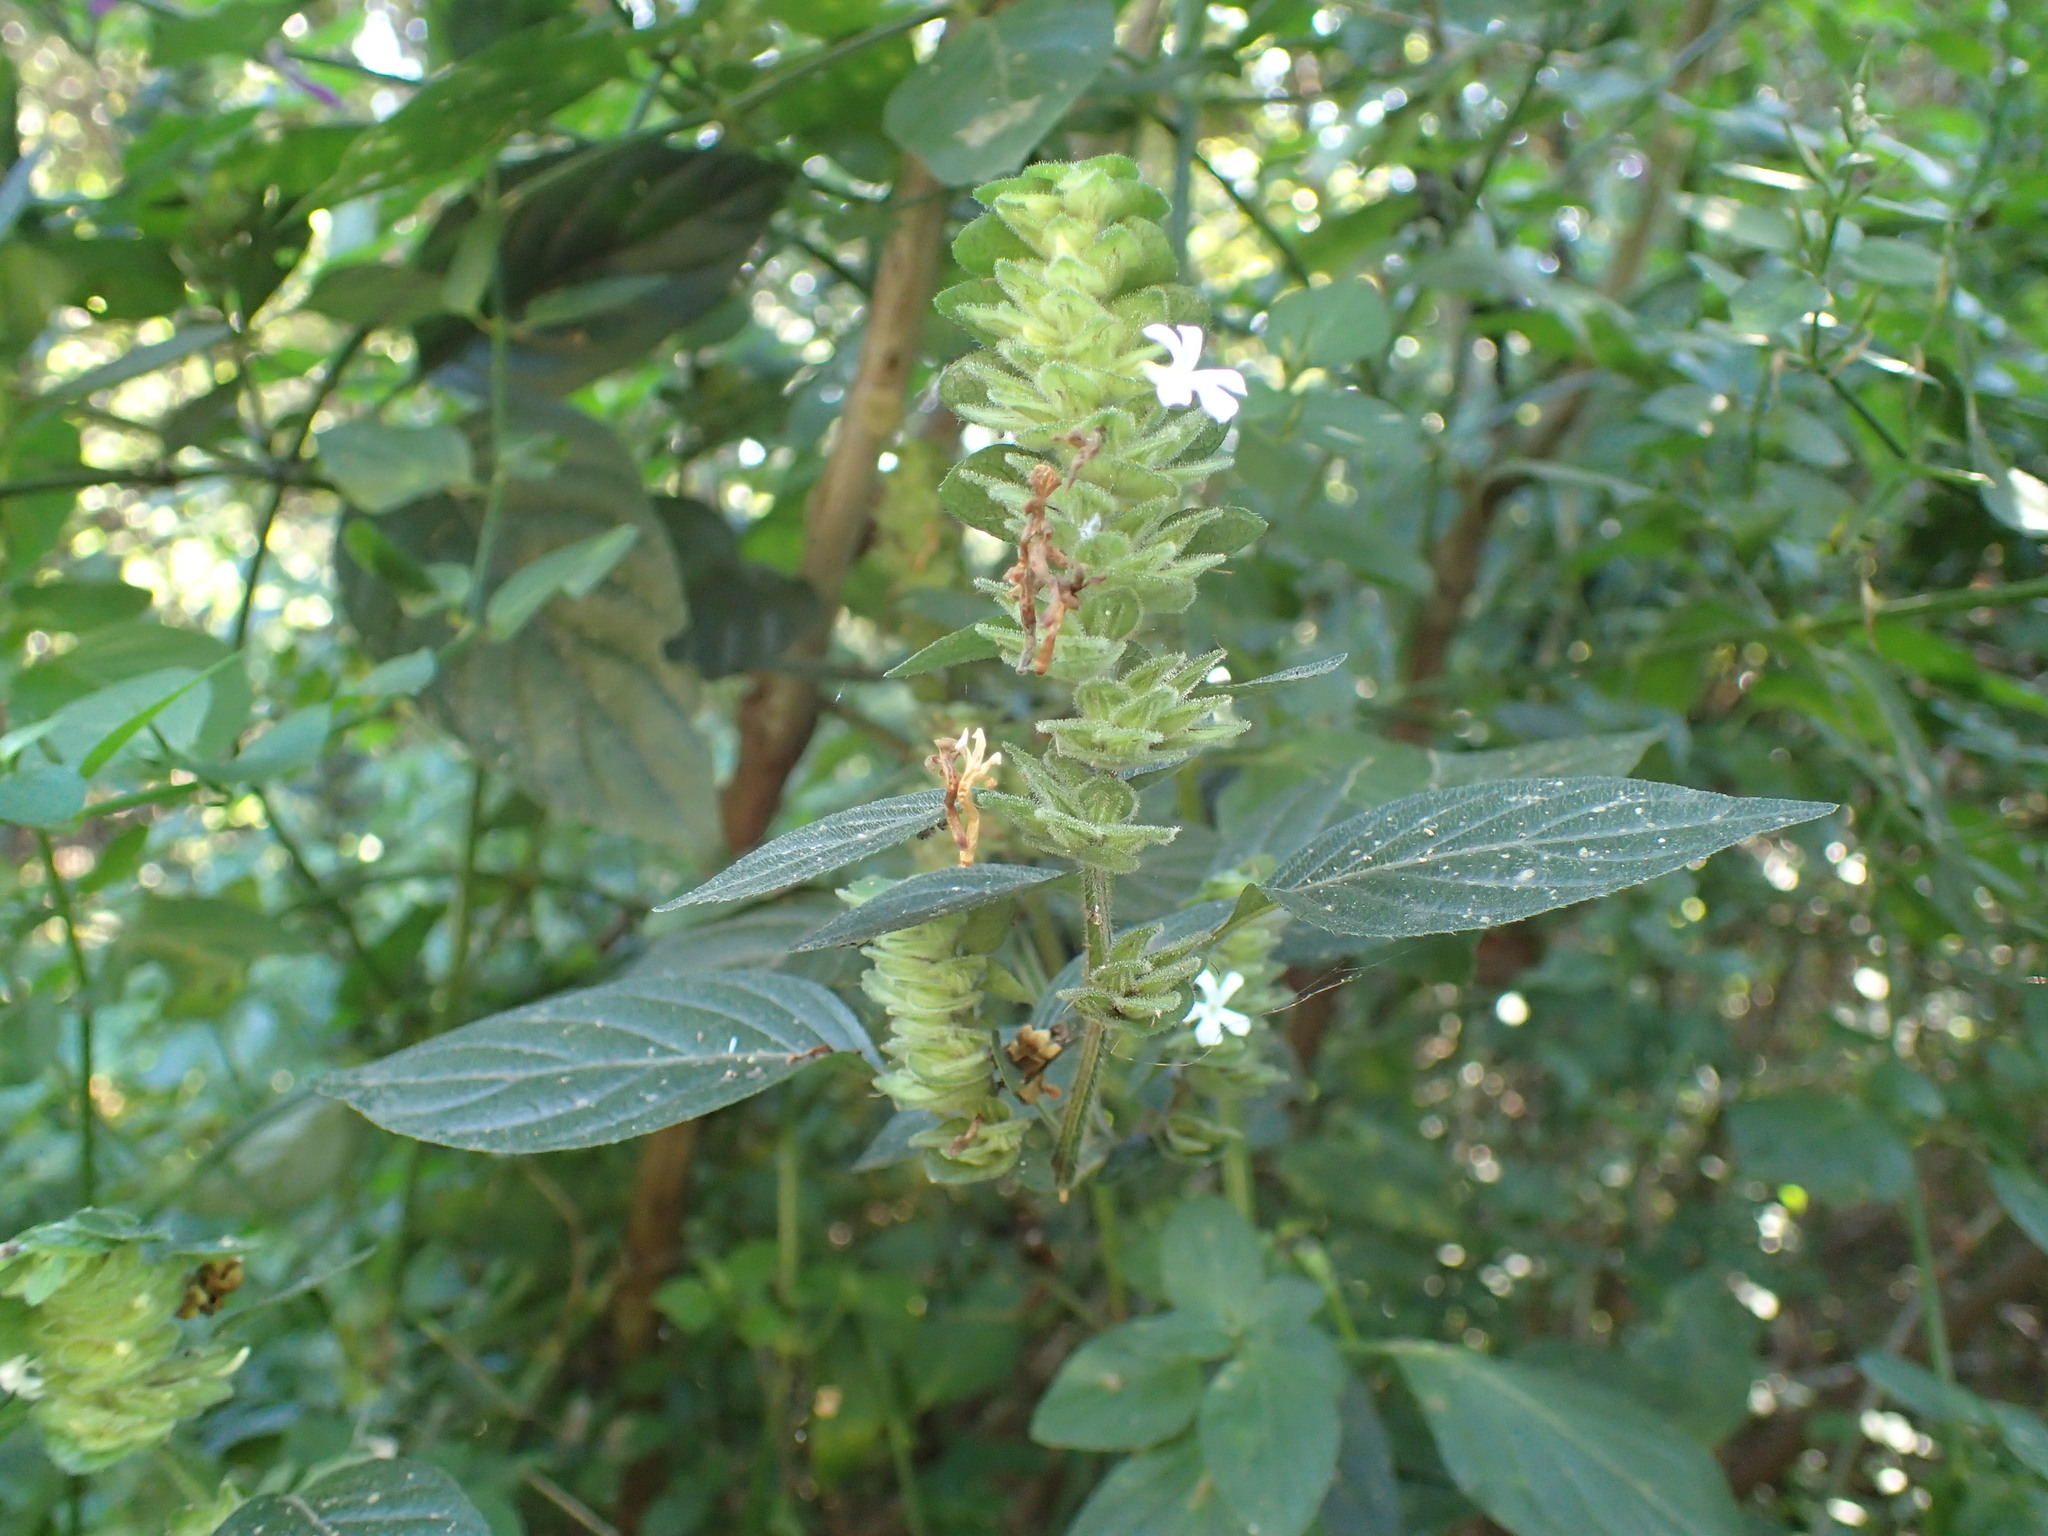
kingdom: Plantae
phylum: Tracheophyta
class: Magnoliopsida
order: Lamiales
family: Acanthaceae
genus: Phaulopsis
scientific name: Phaulopsis imbricata
